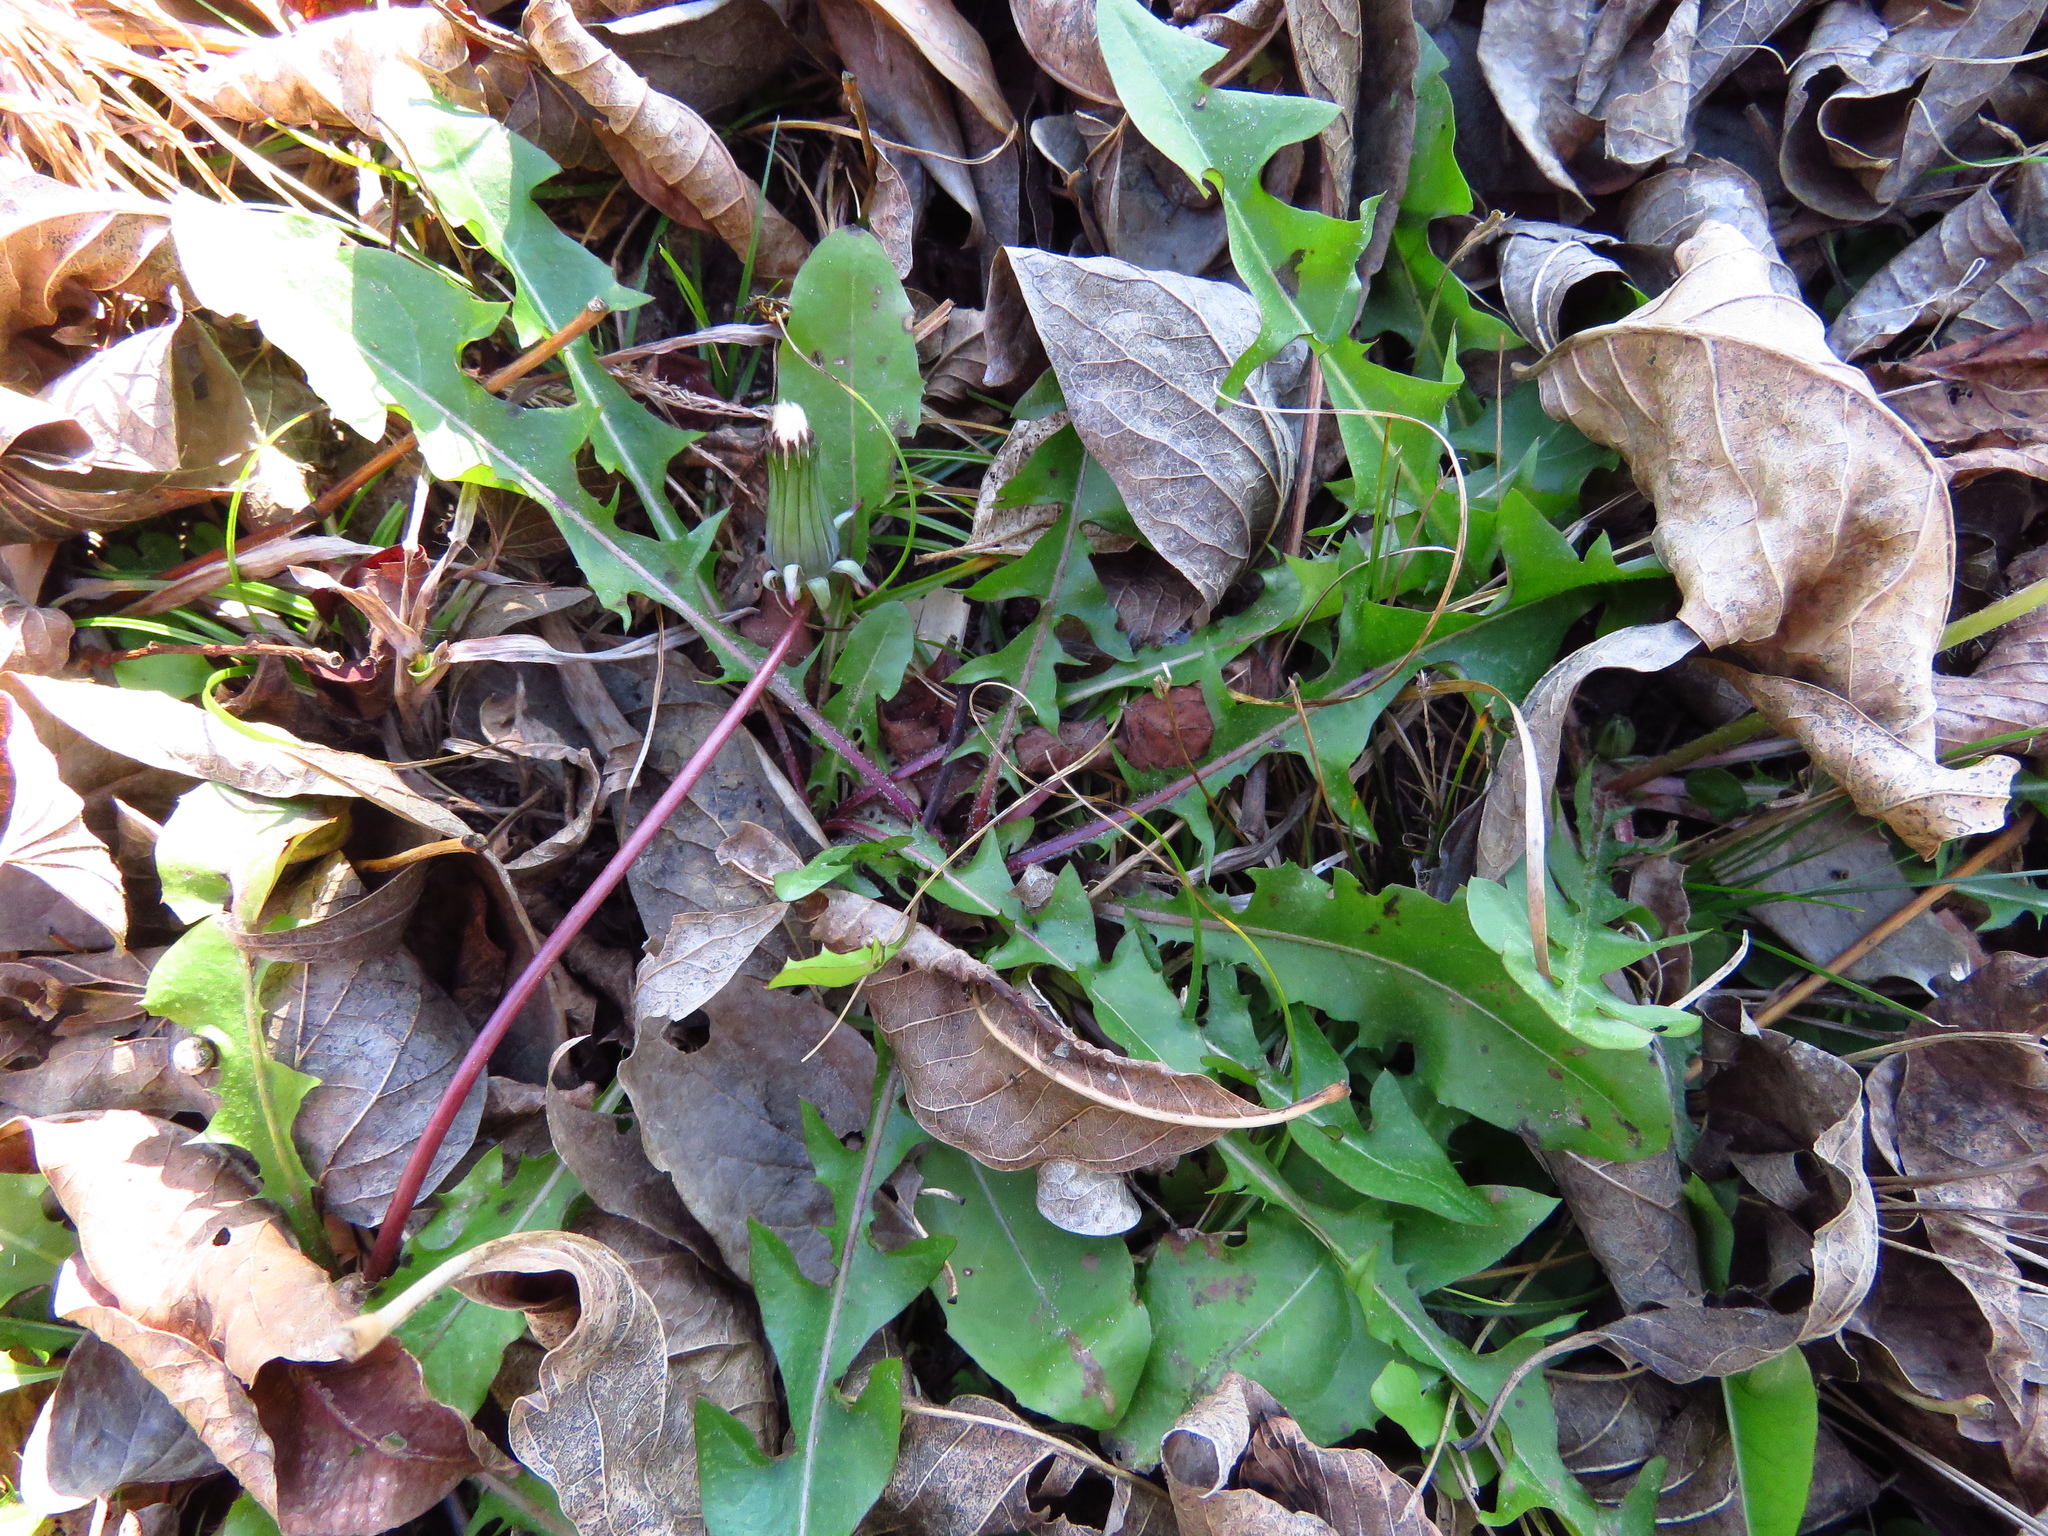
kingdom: Plantae
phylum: Tracheophyta
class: Magnoliopsida
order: Asterales
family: Asteraceae
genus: Taraxacum
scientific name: Taraxacum officinale
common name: Common dandelion
